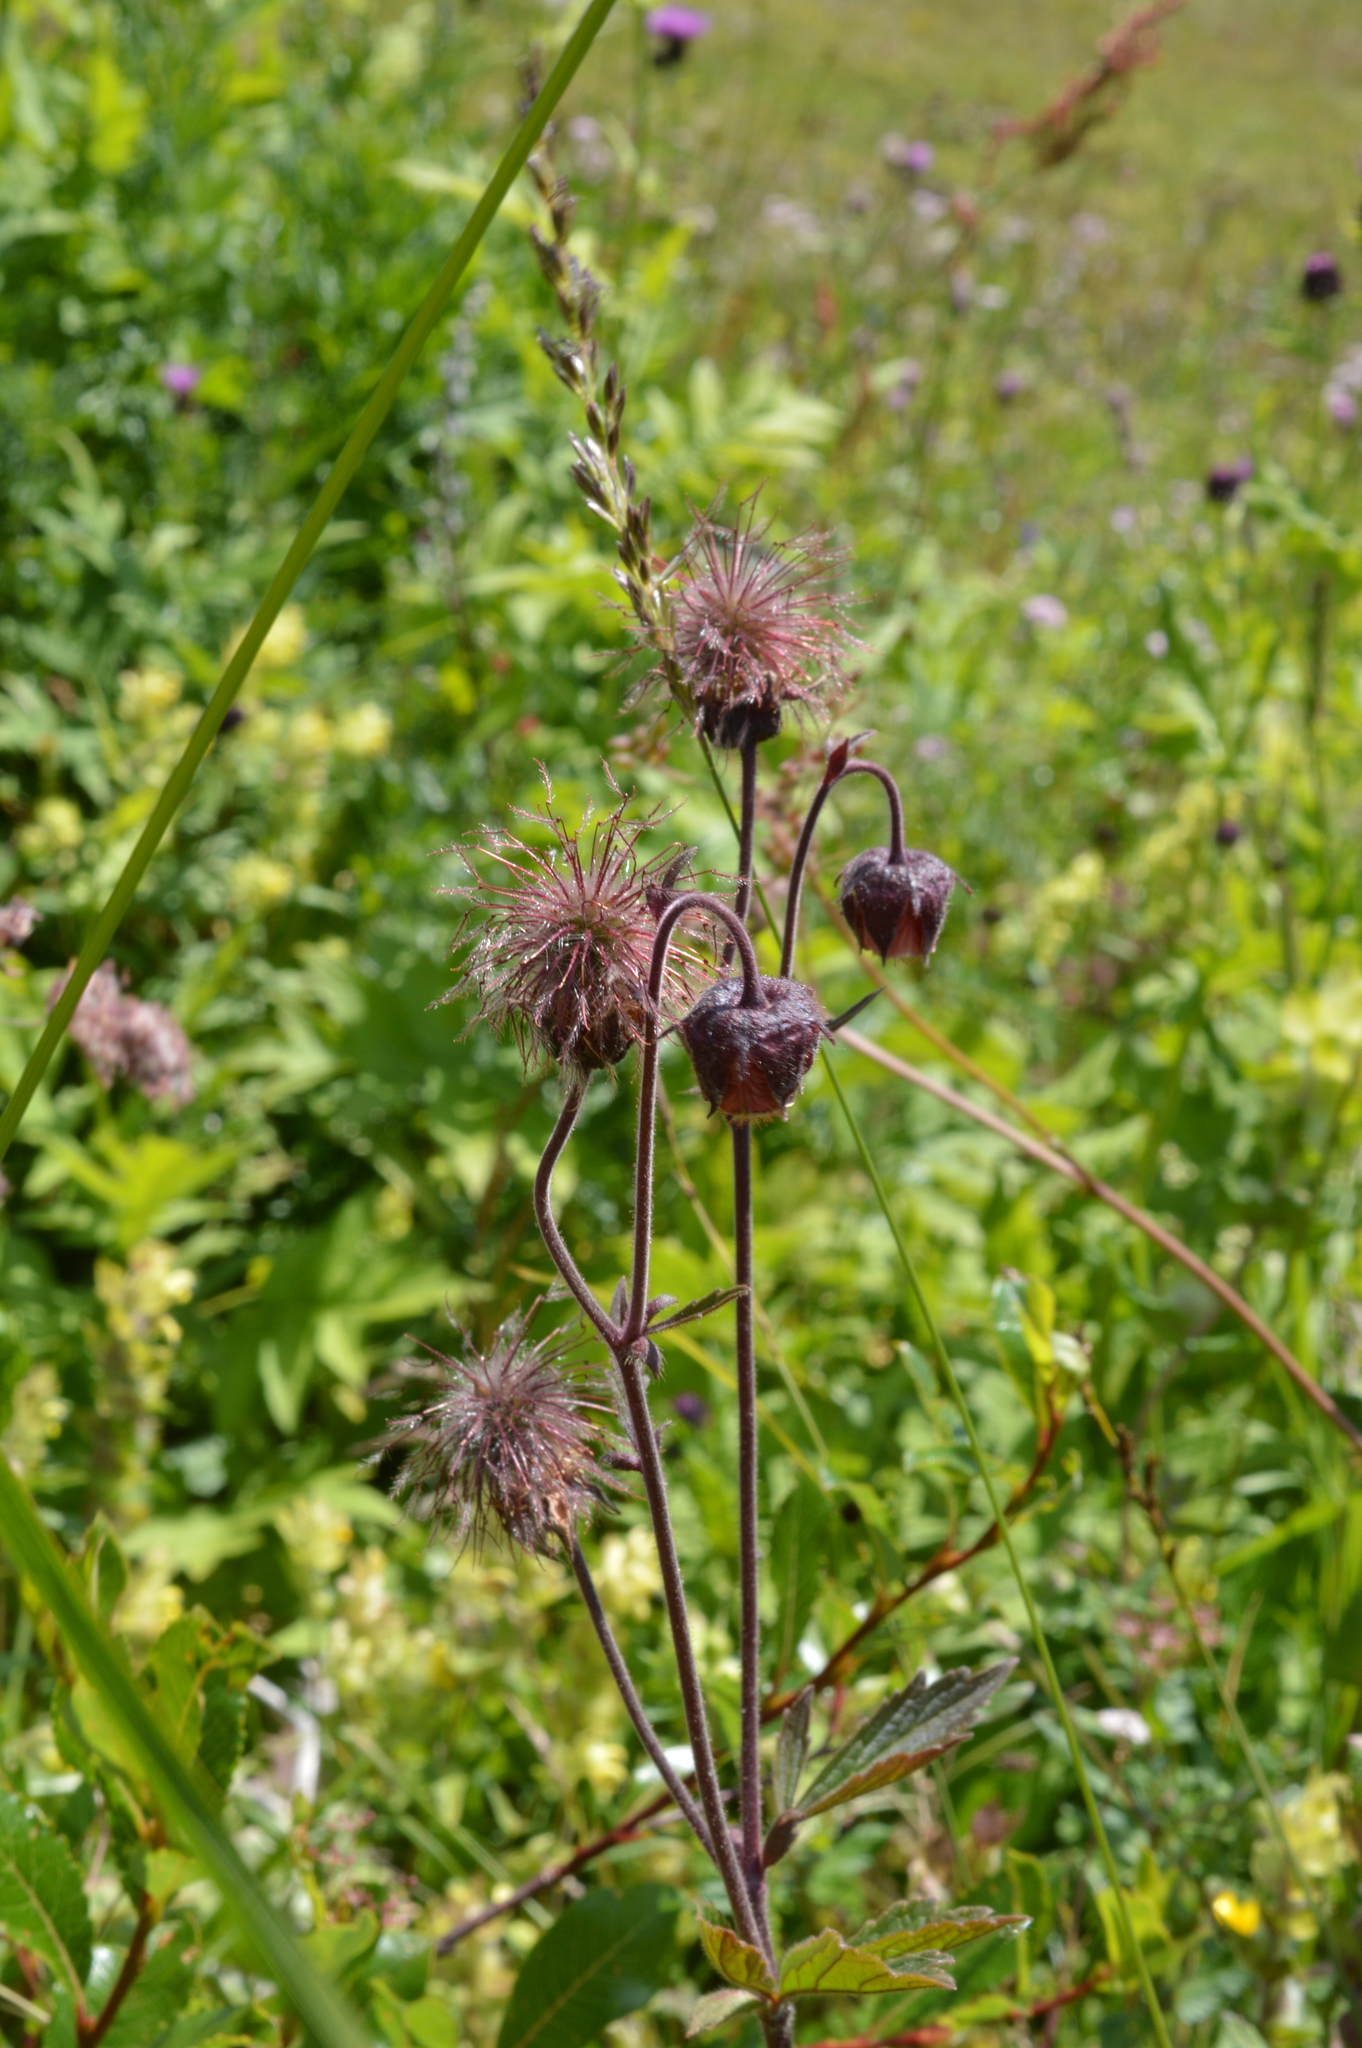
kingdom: Plantae
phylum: Tracheophyta
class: Magnoliopsida
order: Rosales
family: Rosaceae
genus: Geum
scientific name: Geum rivale
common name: Water avens
